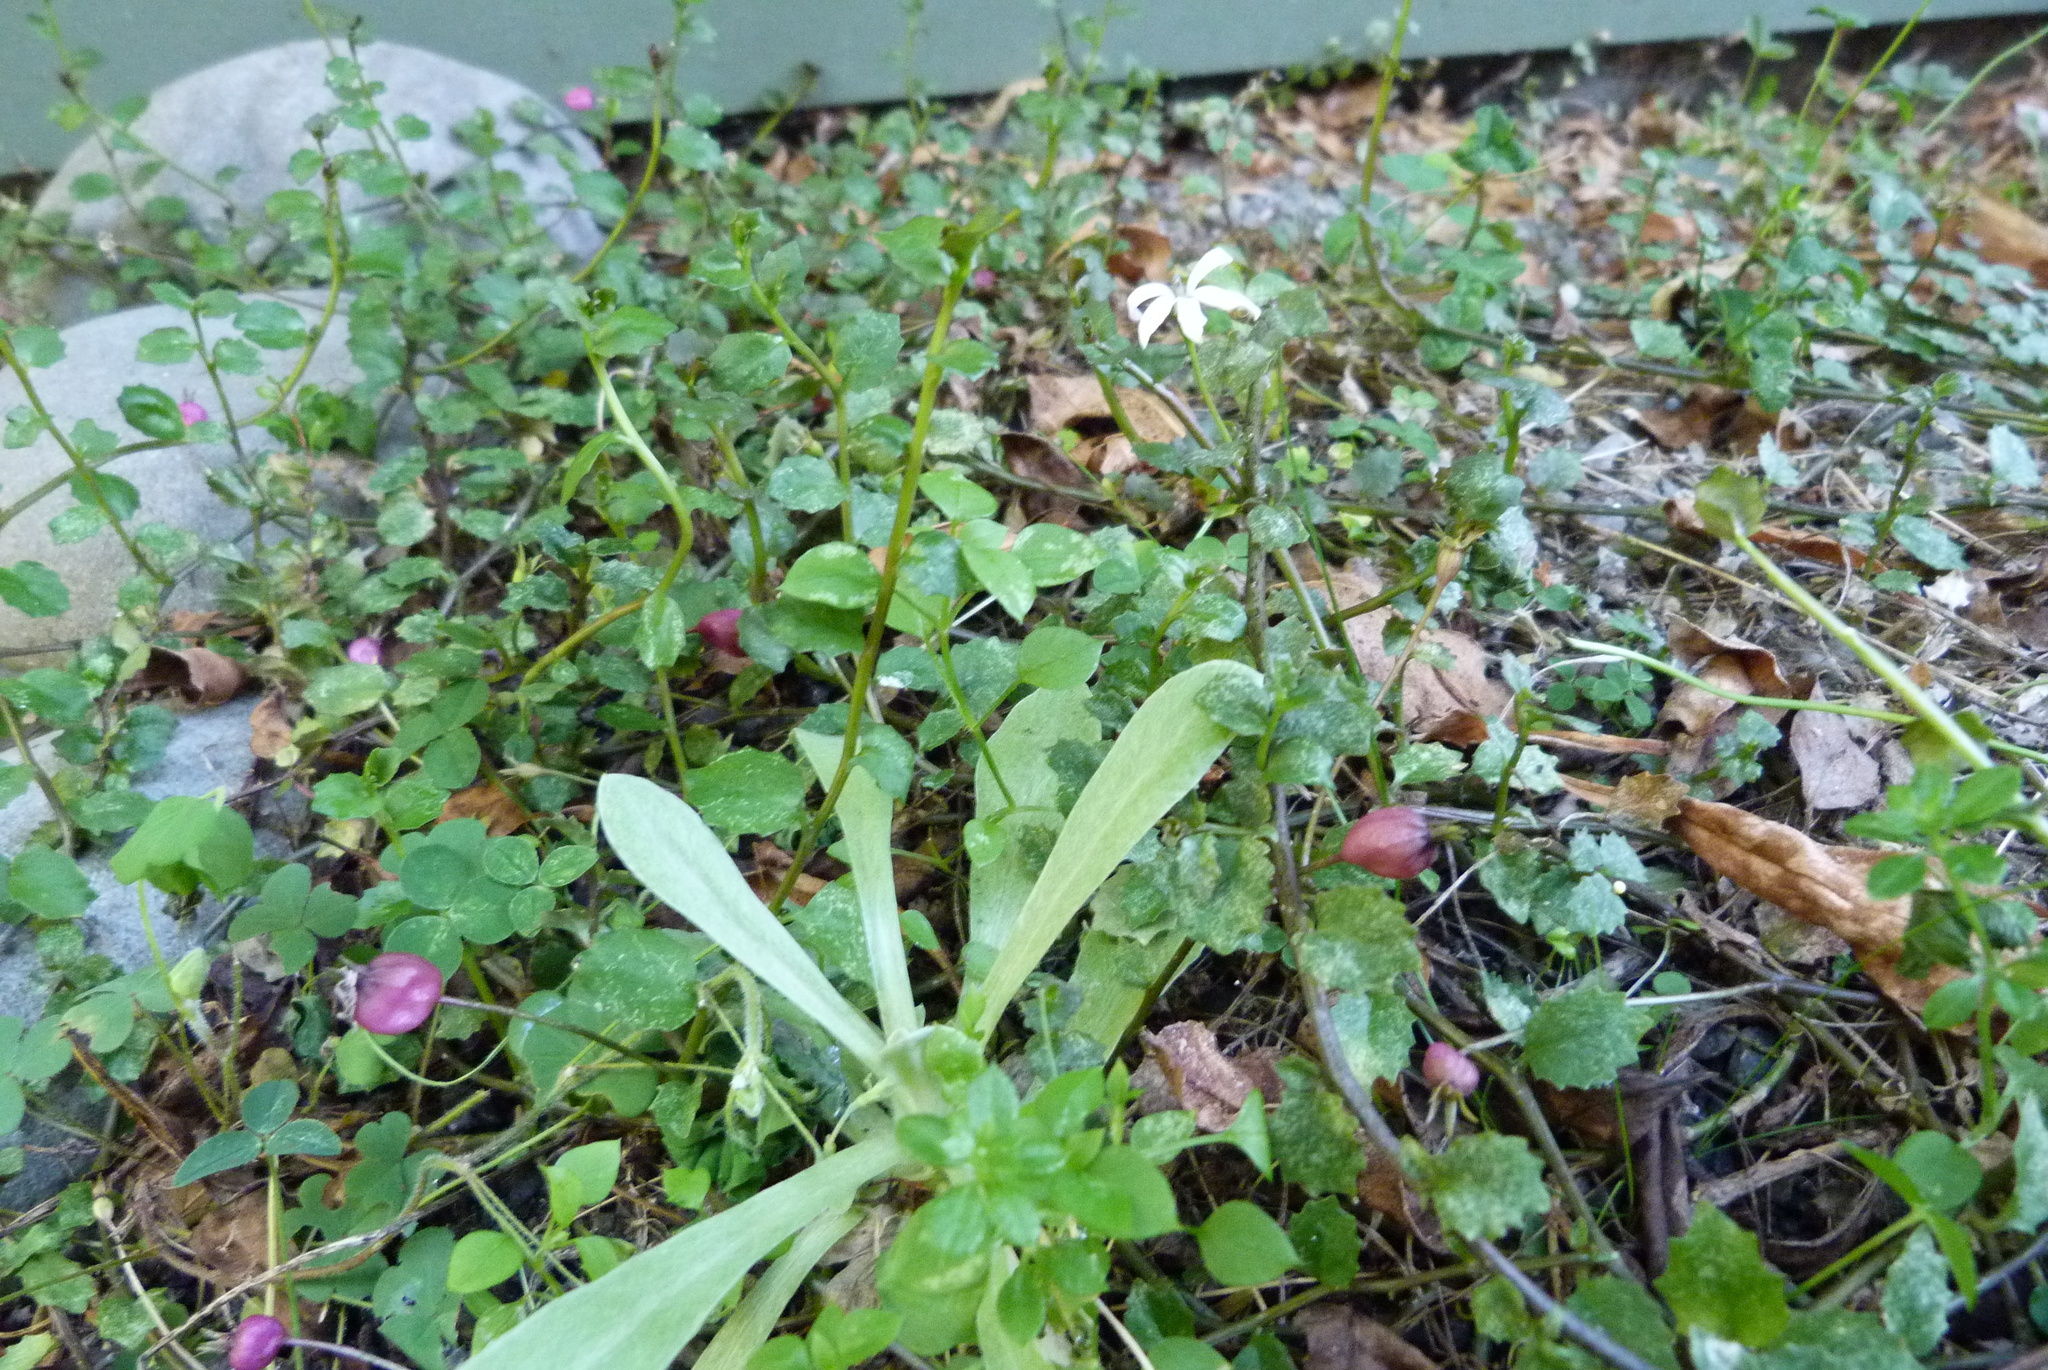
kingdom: Plantae
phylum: Tracheophyta
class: Magnoliopsida
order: Asterales
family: Campanulaceae
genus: Lobelia
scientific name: Lobelia angulata
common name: Lawn lobelia
